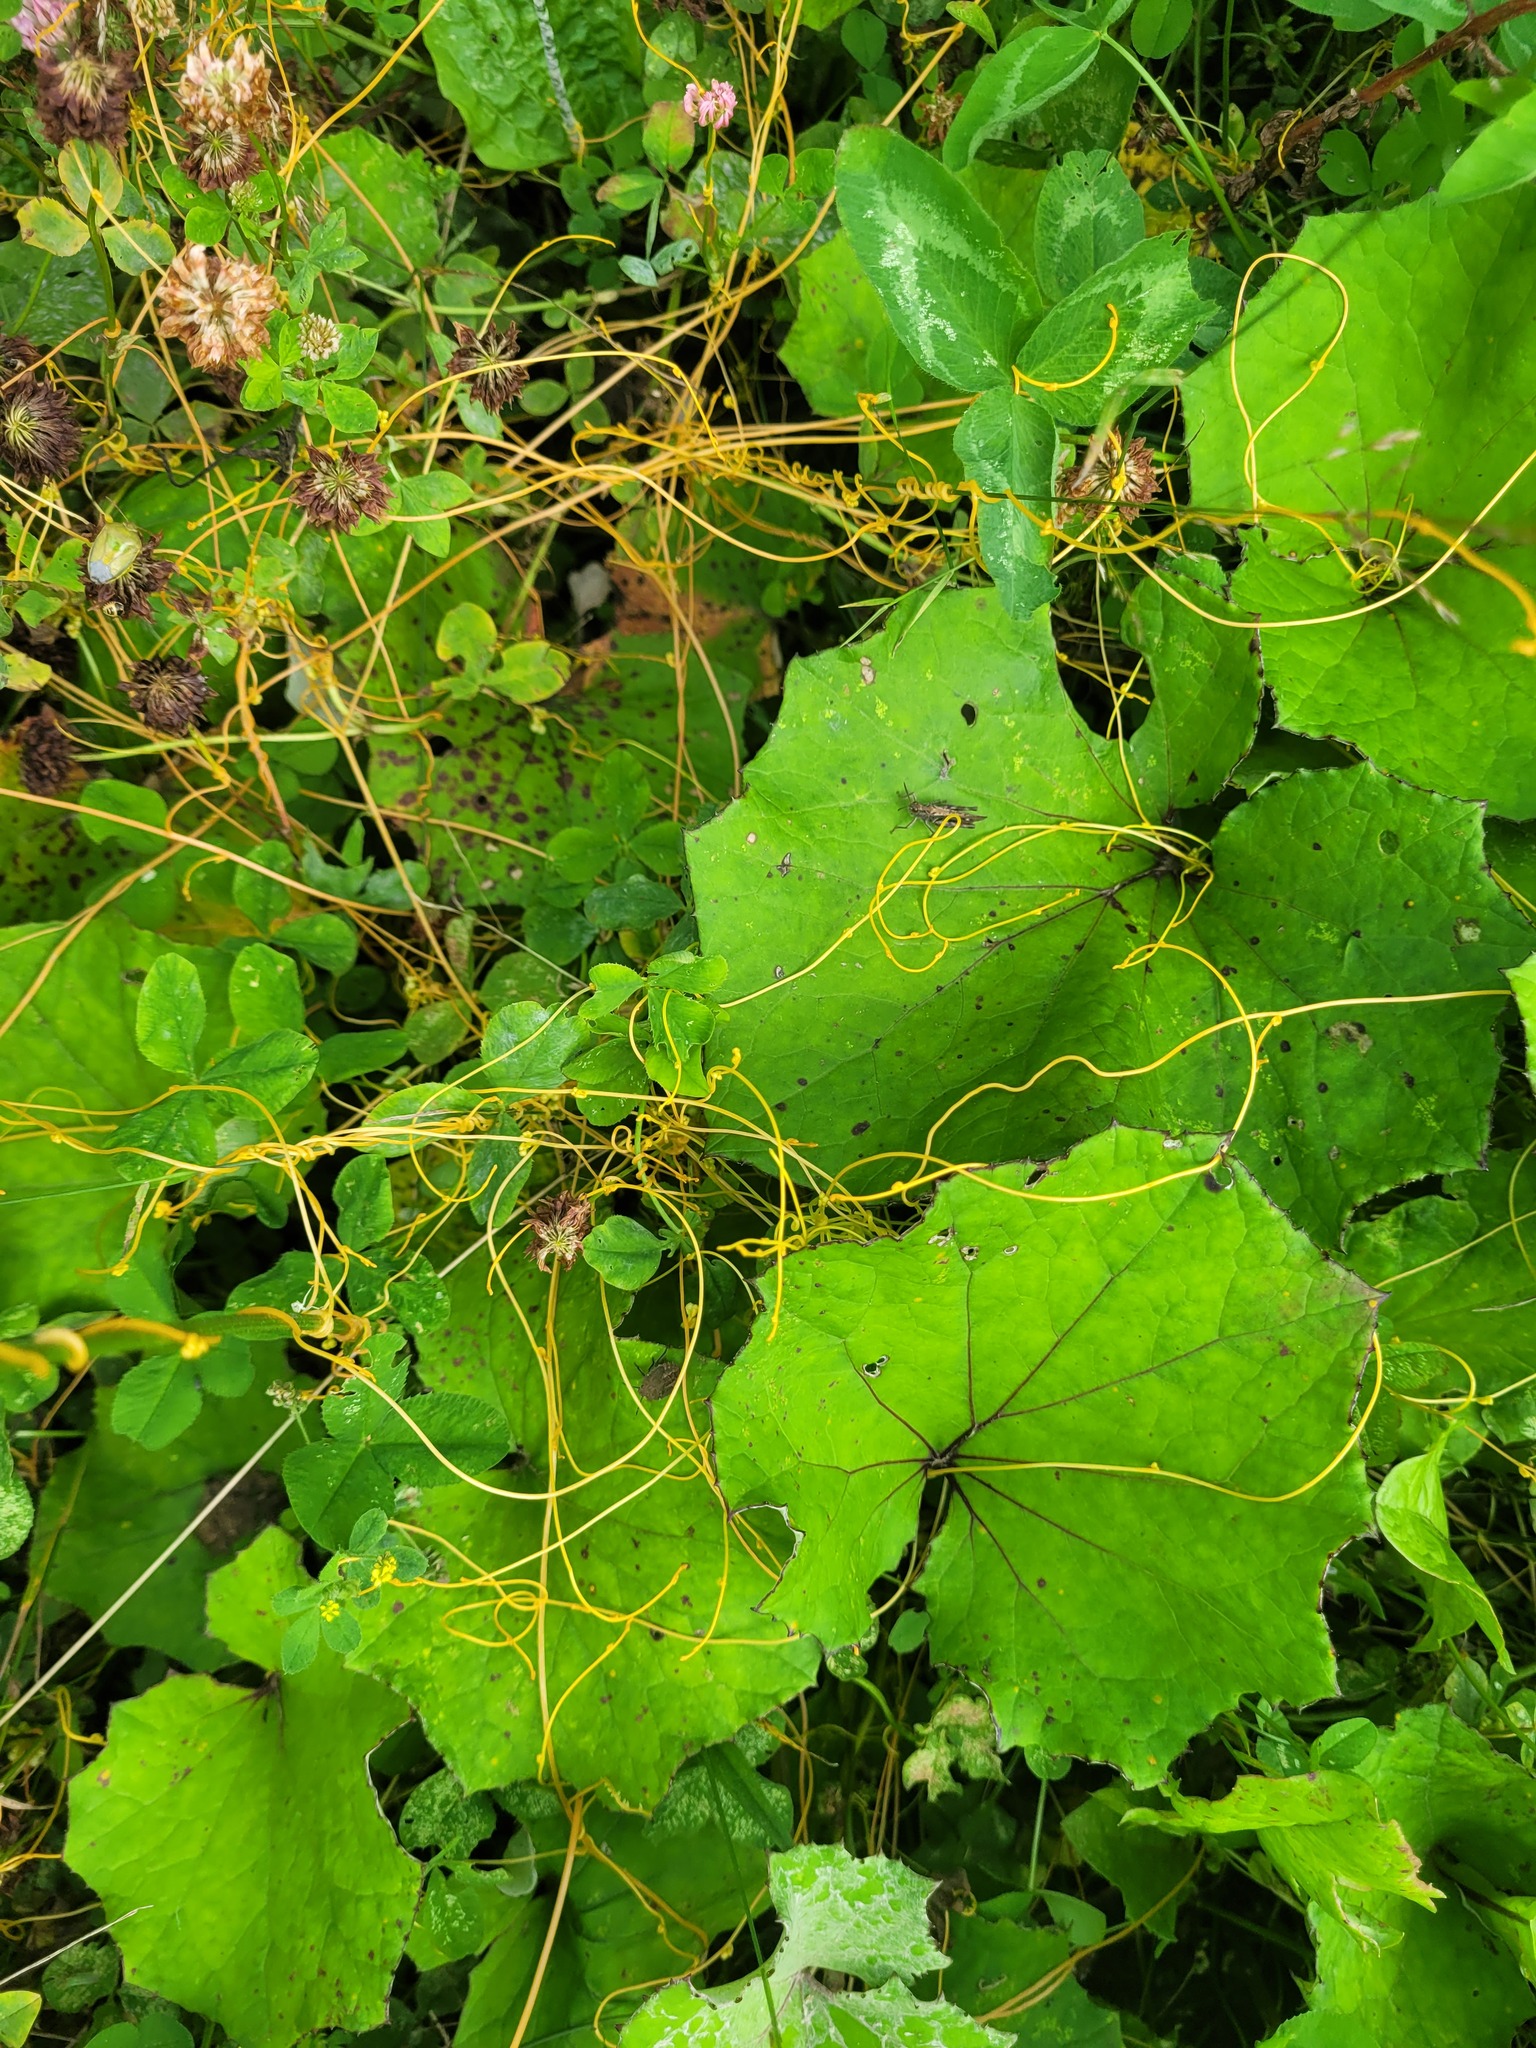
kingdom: Plantae
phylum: Tracheophyta
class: Magnoliopsida
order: Solanales
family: Convolvulaceae
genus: Cuscuta
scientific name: Cuscuta campestris
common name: Yellow dodder
